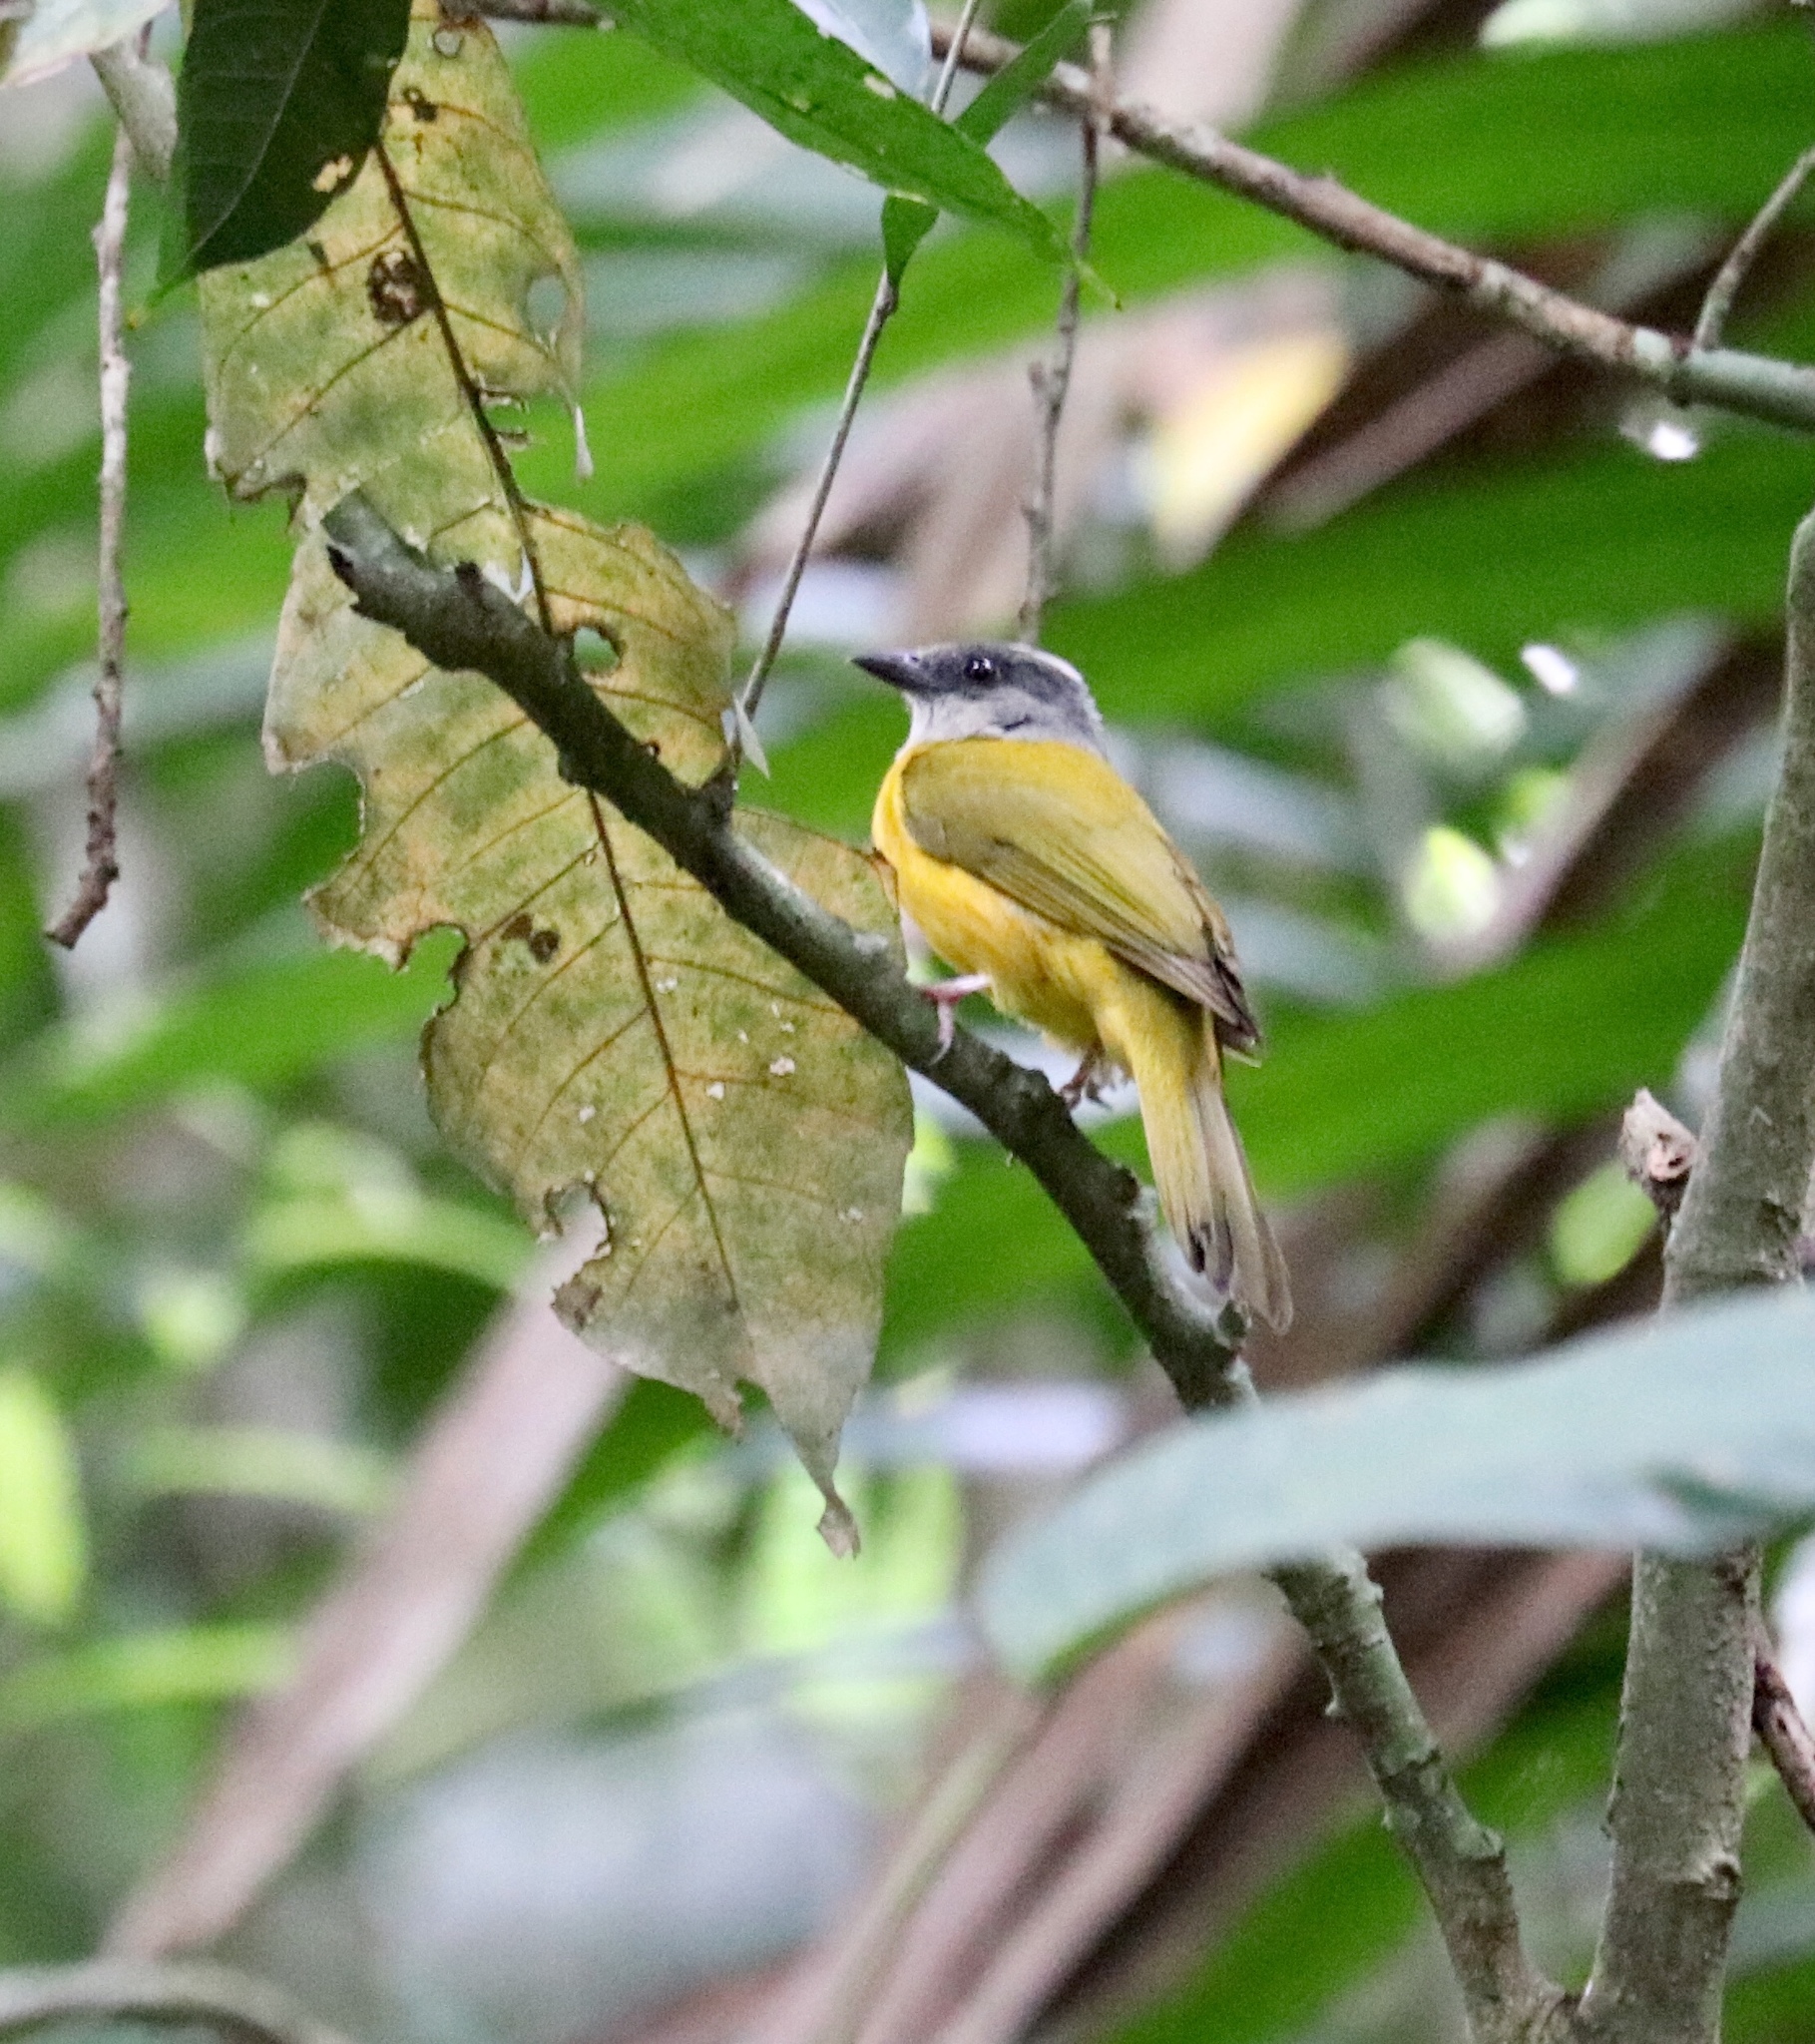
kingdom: Animalia
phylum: Chordata
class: Aves
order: Passeriformes
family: Thraupidae
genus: Eucometis
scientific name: Eucometis penicillata
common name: Grey-headed tanager
